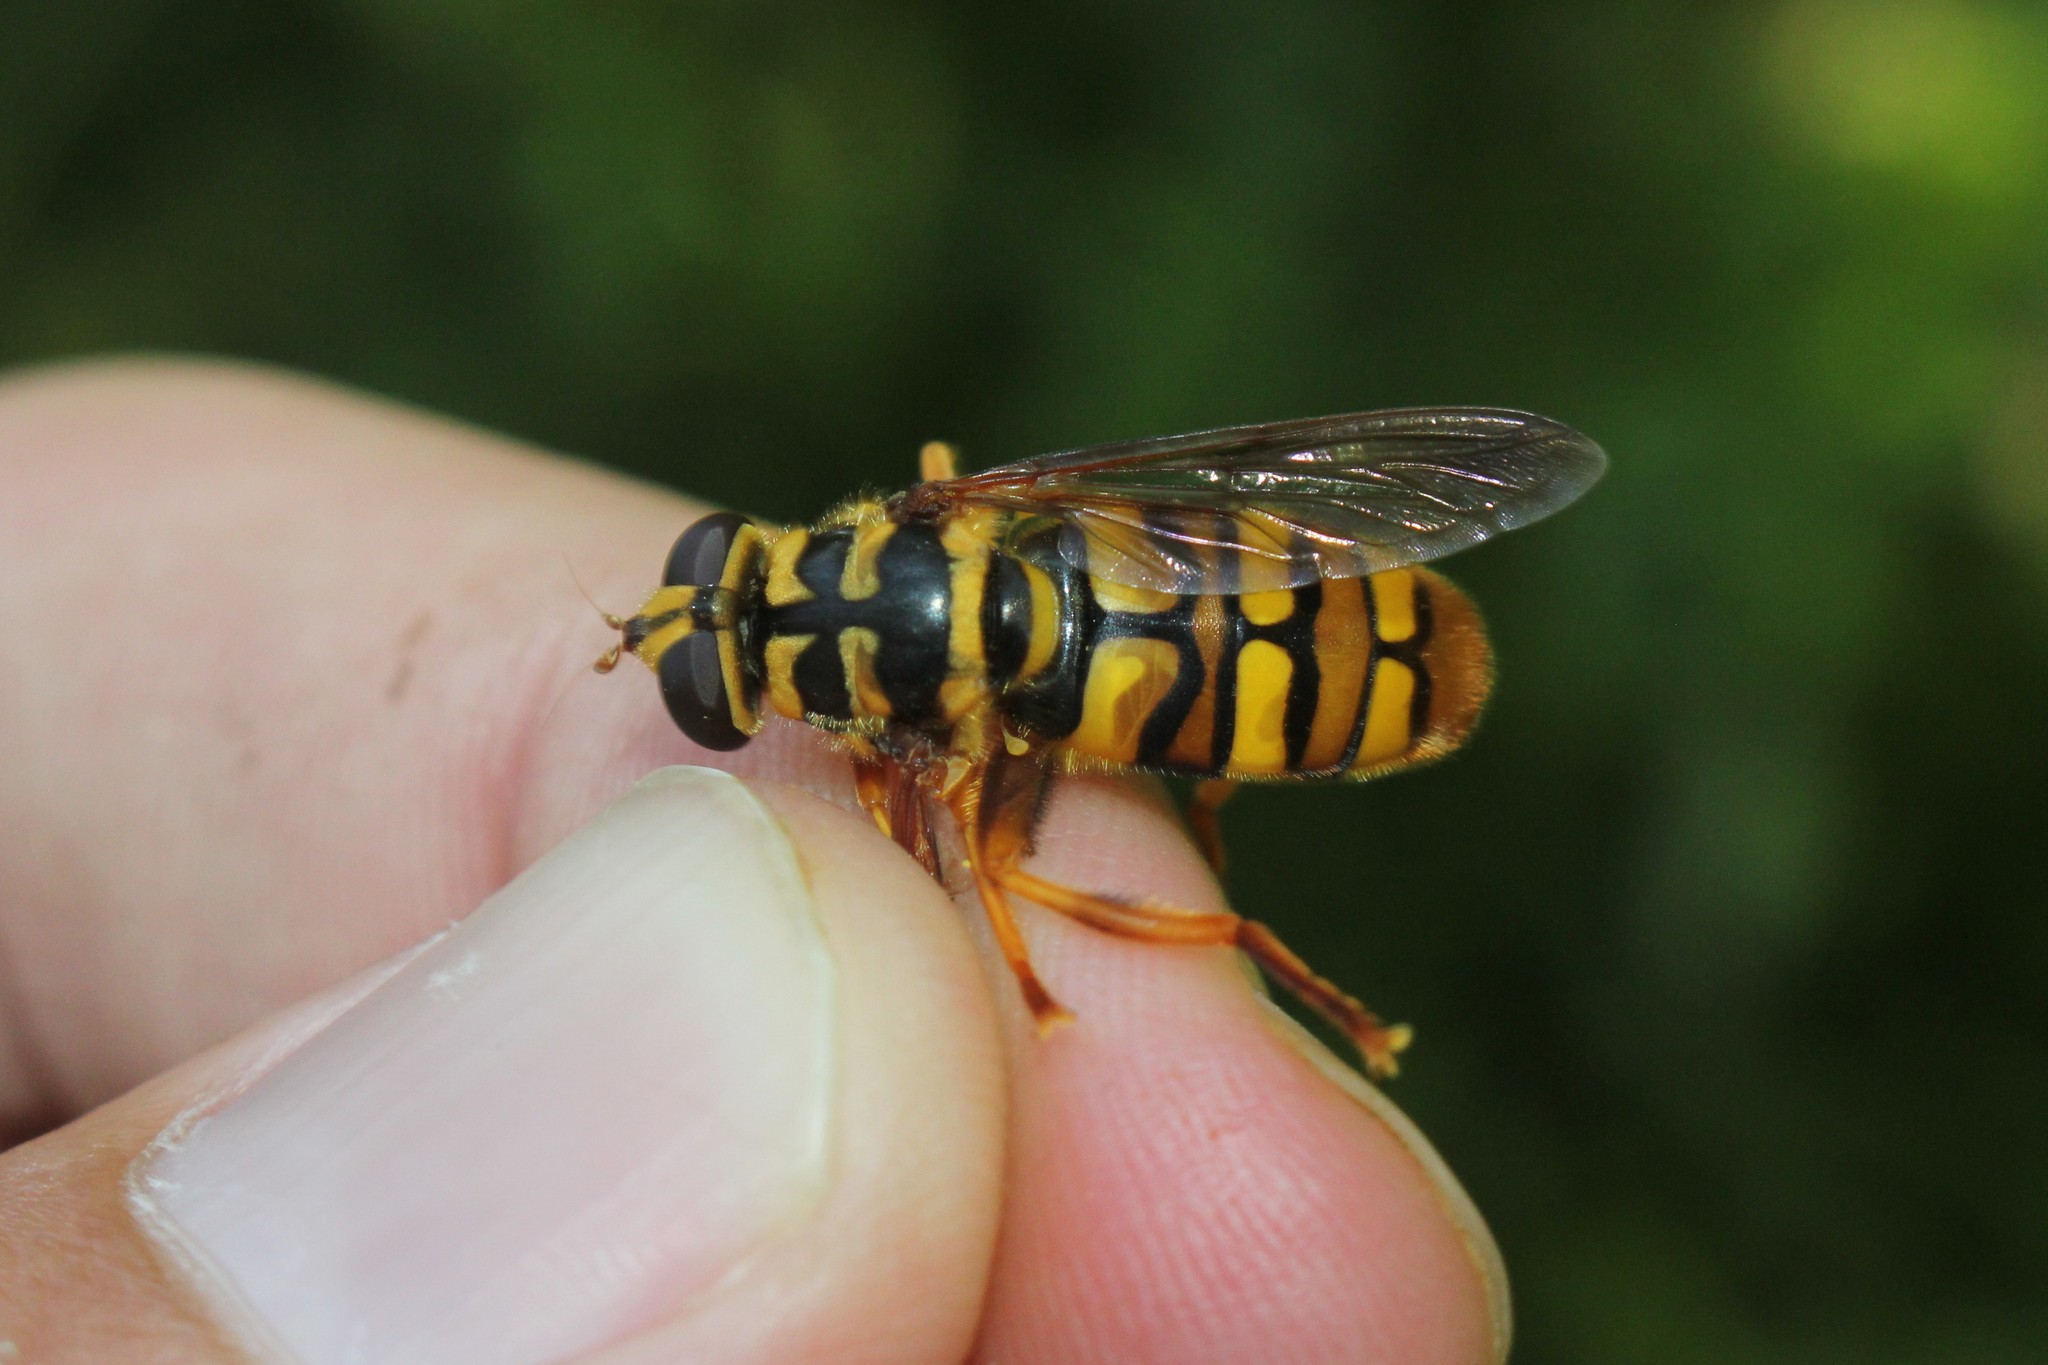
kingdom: Animalia
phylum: Arthropoda
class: Insecta
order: Diptera
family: Syrphidae
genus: Milesia
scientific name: Milesia virginiensis
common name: Virginia giant
